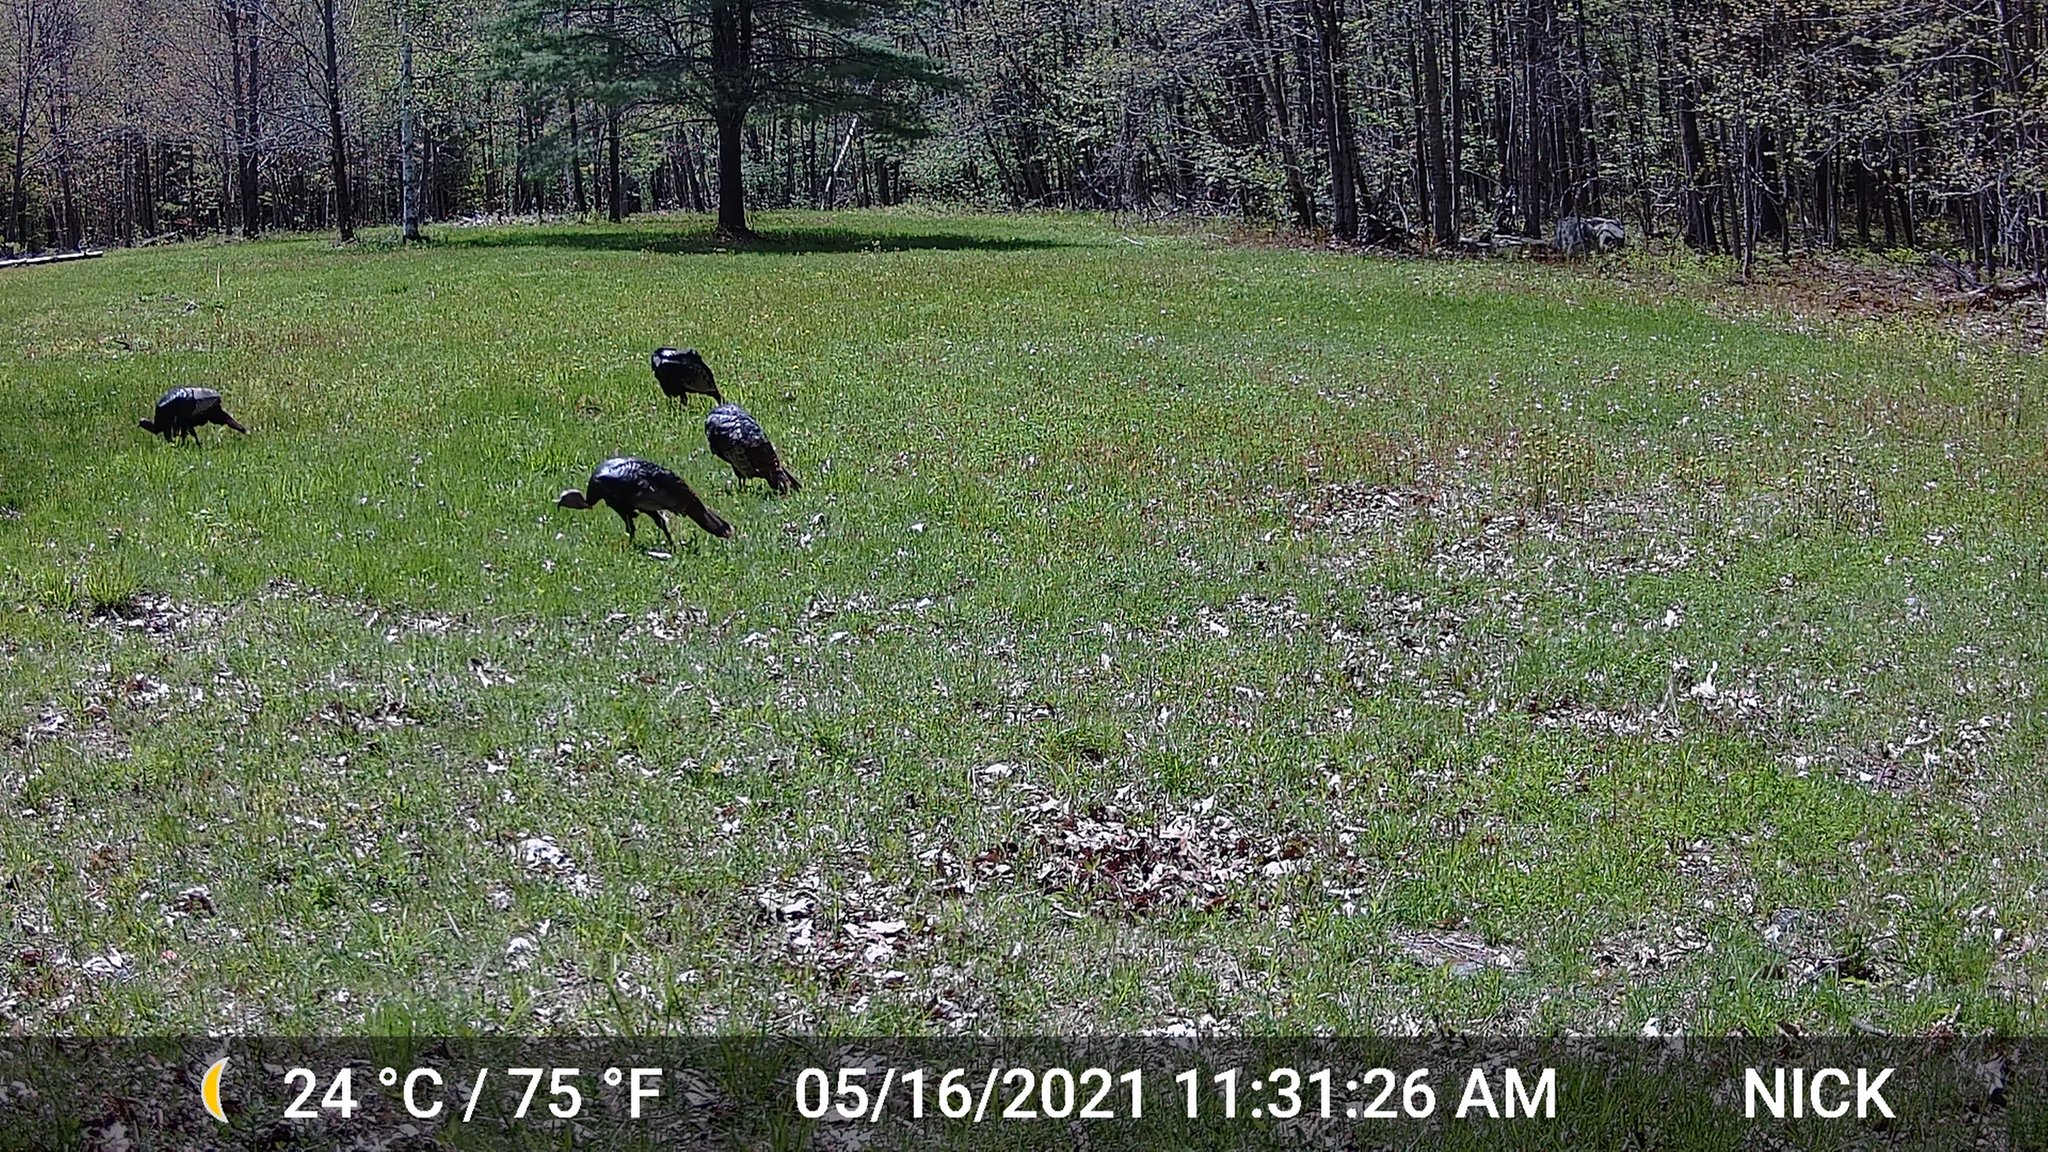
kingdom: Animalia
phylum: Chordata
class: Aves
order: Galliformes
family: Phasianidae
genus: Meleagris
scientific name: Meleagris gallopavo
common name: Wild turkey
